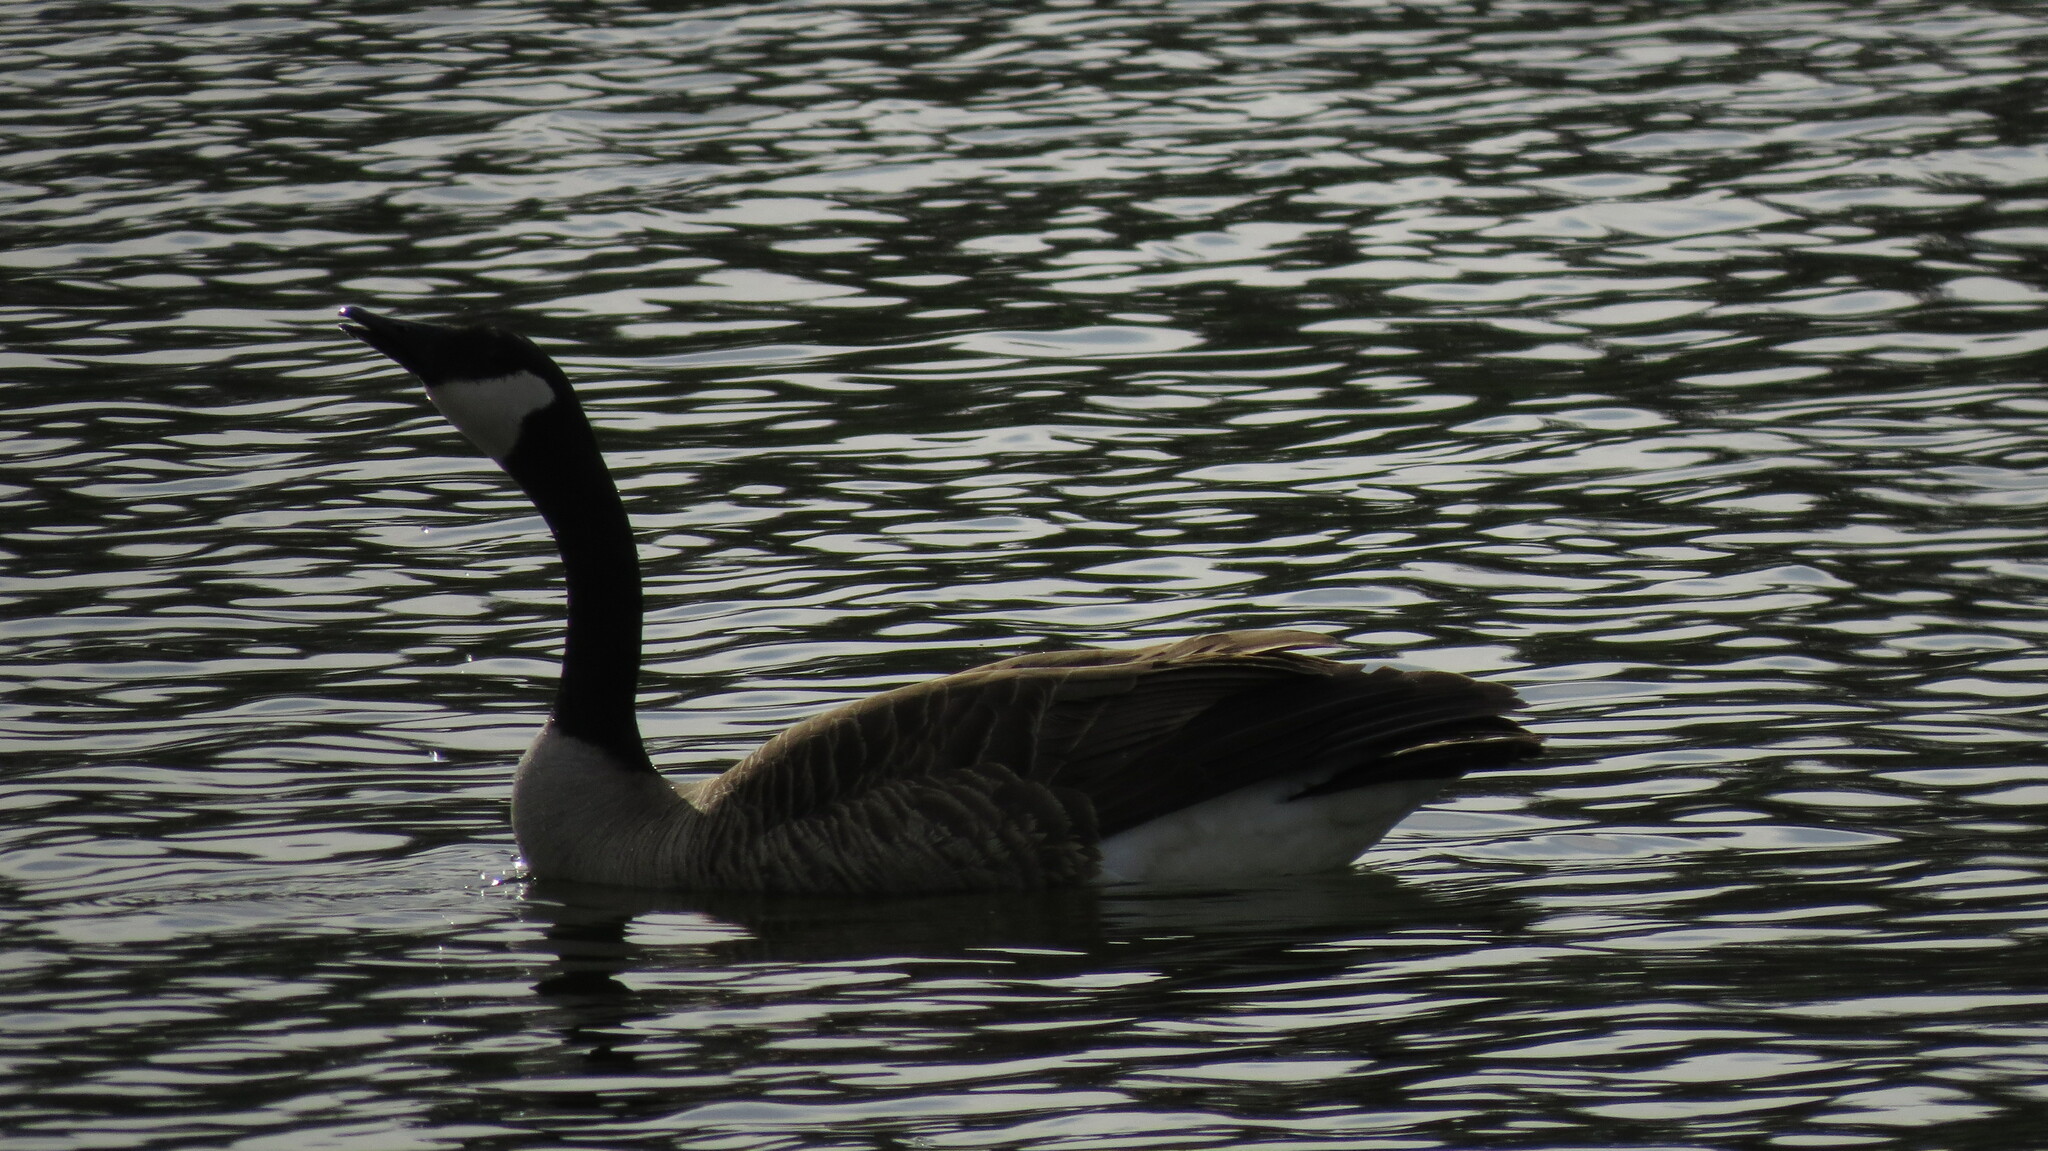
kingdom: Animalia
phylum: Chordata
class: Aves
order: Anseriformes
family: Anatidae
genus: Branta
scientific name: Branta canadensis
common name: Canada goose
